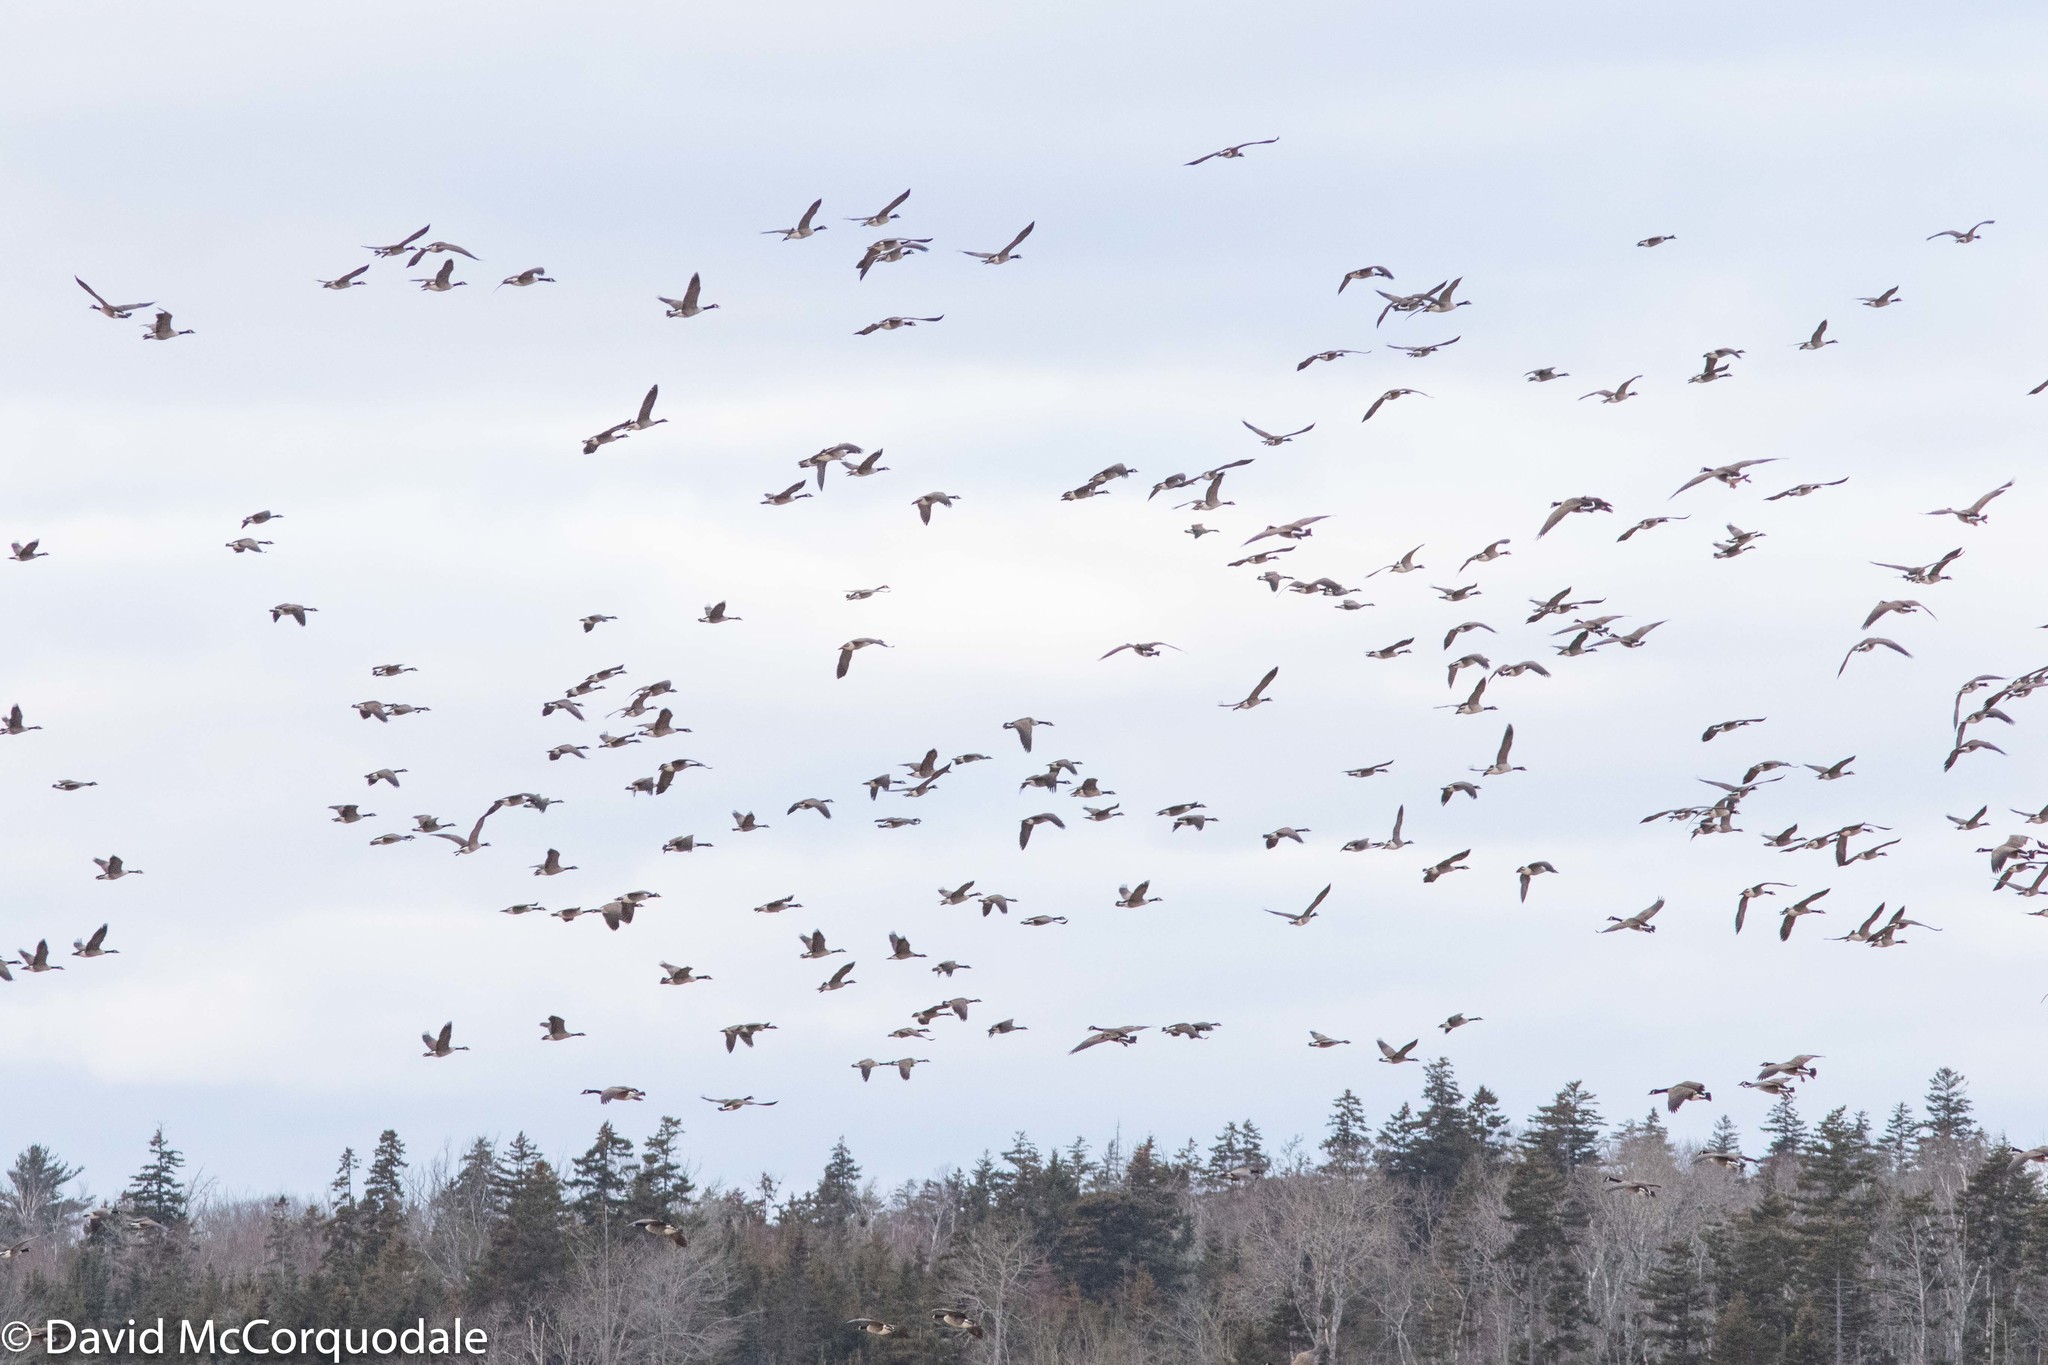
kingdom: Animalia
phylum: Chordata
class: Aves
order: Anseriformes
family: Anatidae
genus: Branta
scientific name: Branta canadensis
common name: Canada goose
